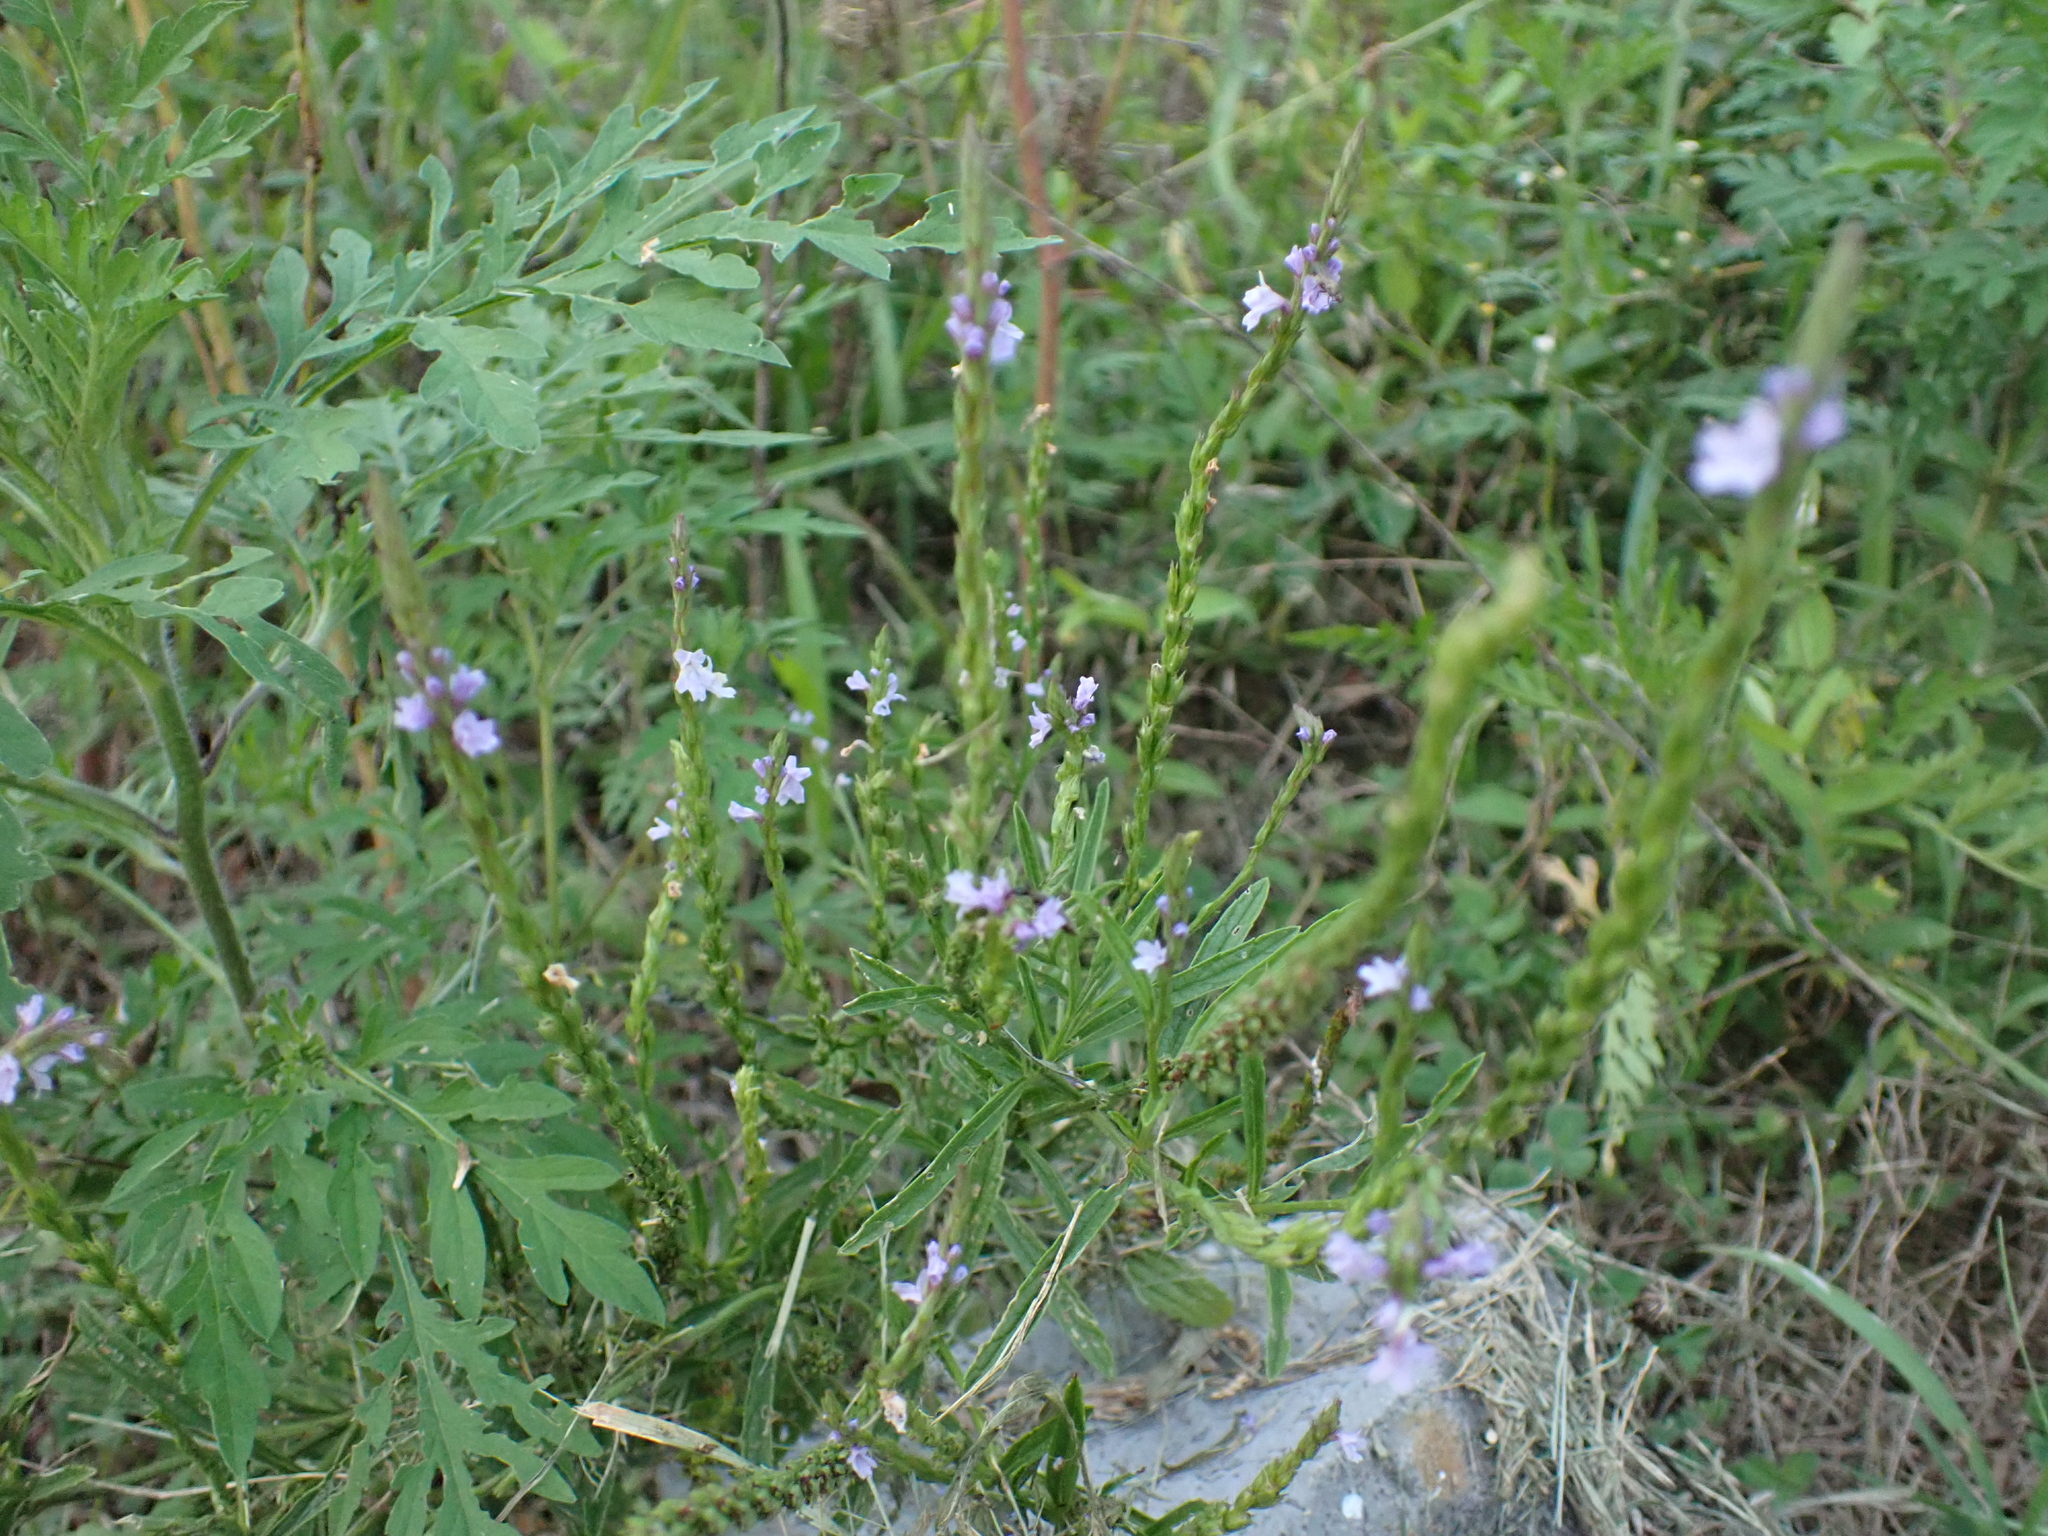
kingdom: Plantae
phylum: Tracheophyta
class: Magnoliopsida
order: Lamiales
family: Verbenaceae
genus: Verbena
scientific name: Verbena simplex
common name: Narrow-leaf vervain
